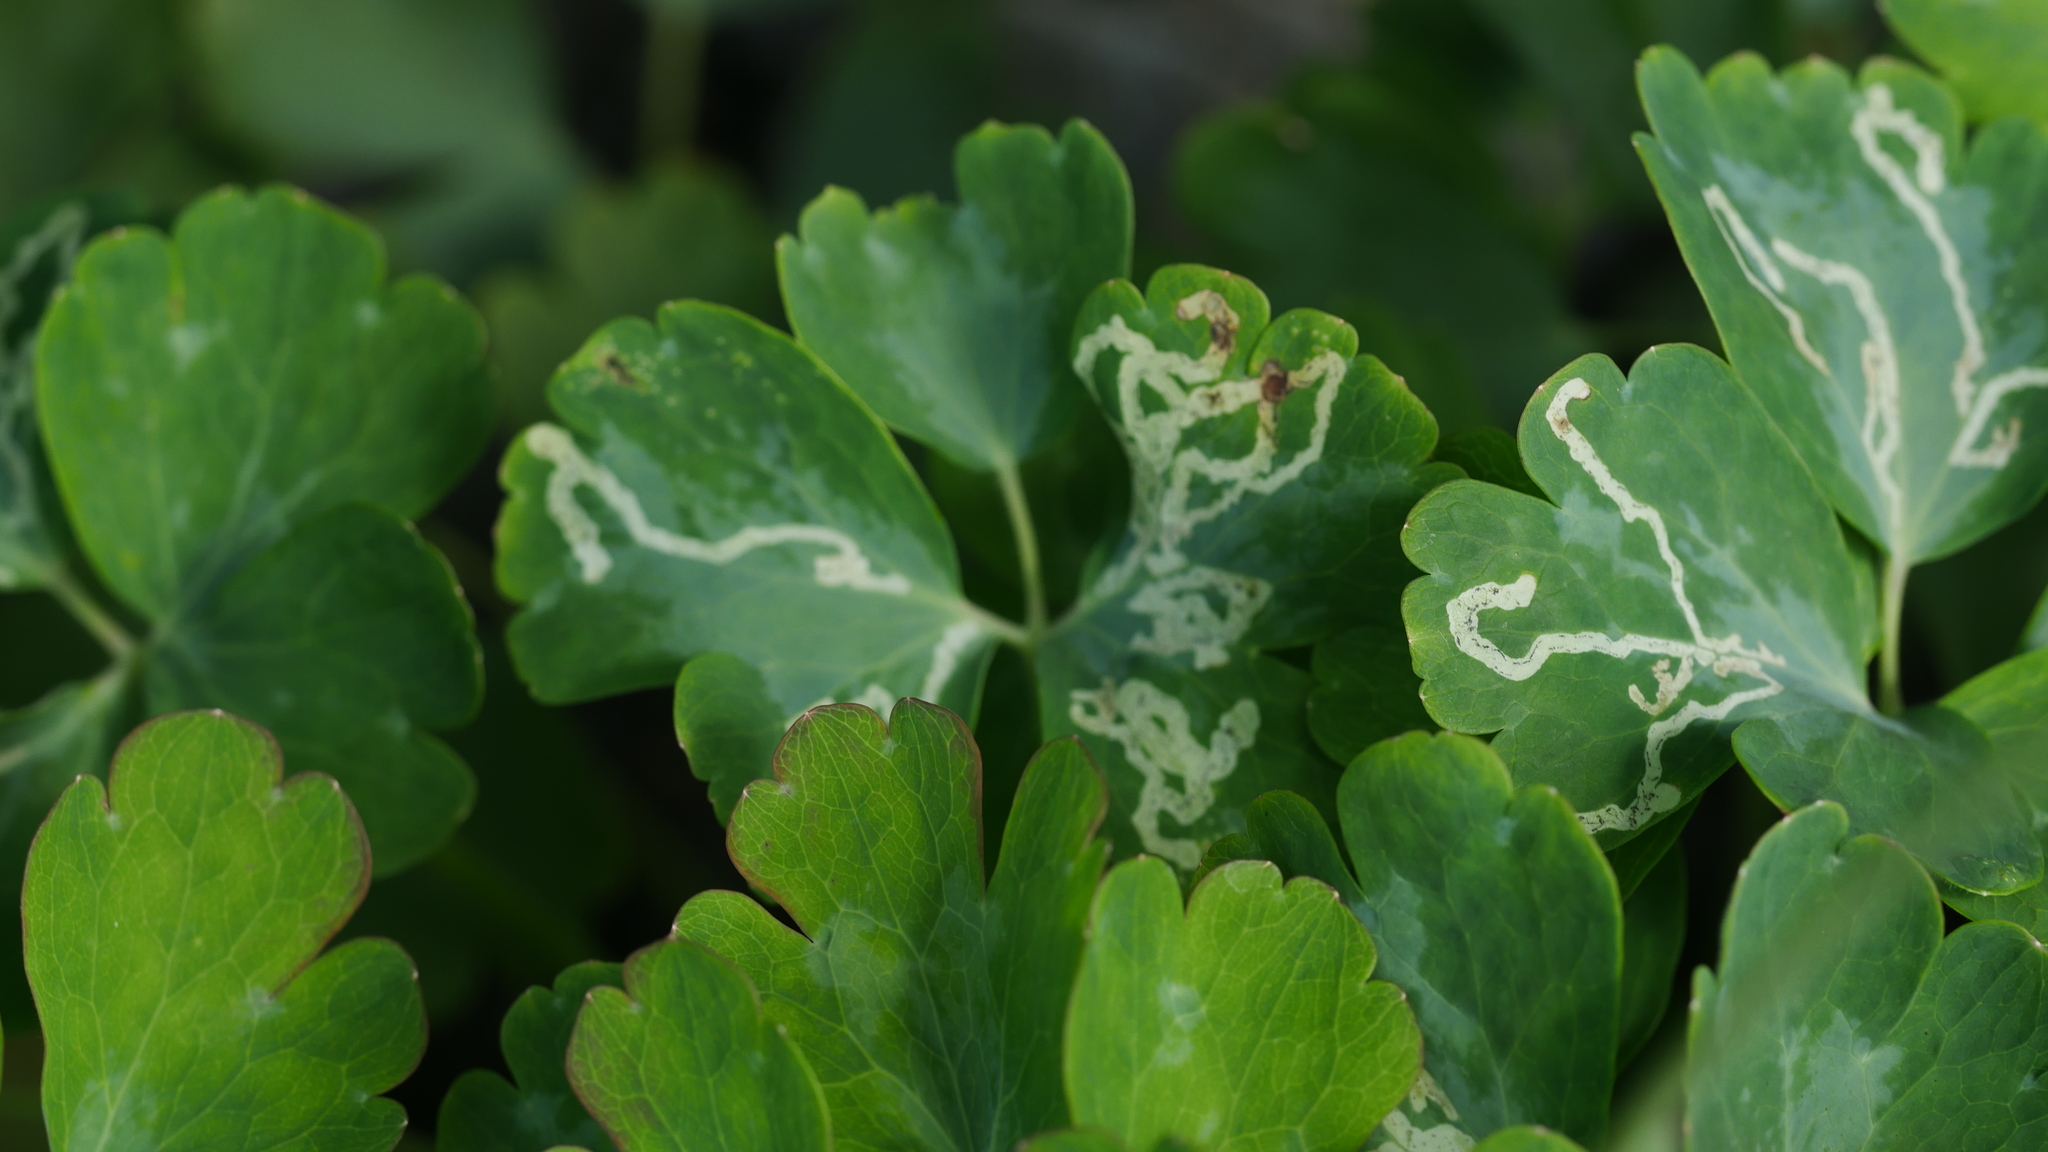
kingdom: Animalia
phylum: Arthropoda
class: Insecta
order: Diptera
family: Agromyzidae
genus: Phytomyza
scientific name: Phytomyza
